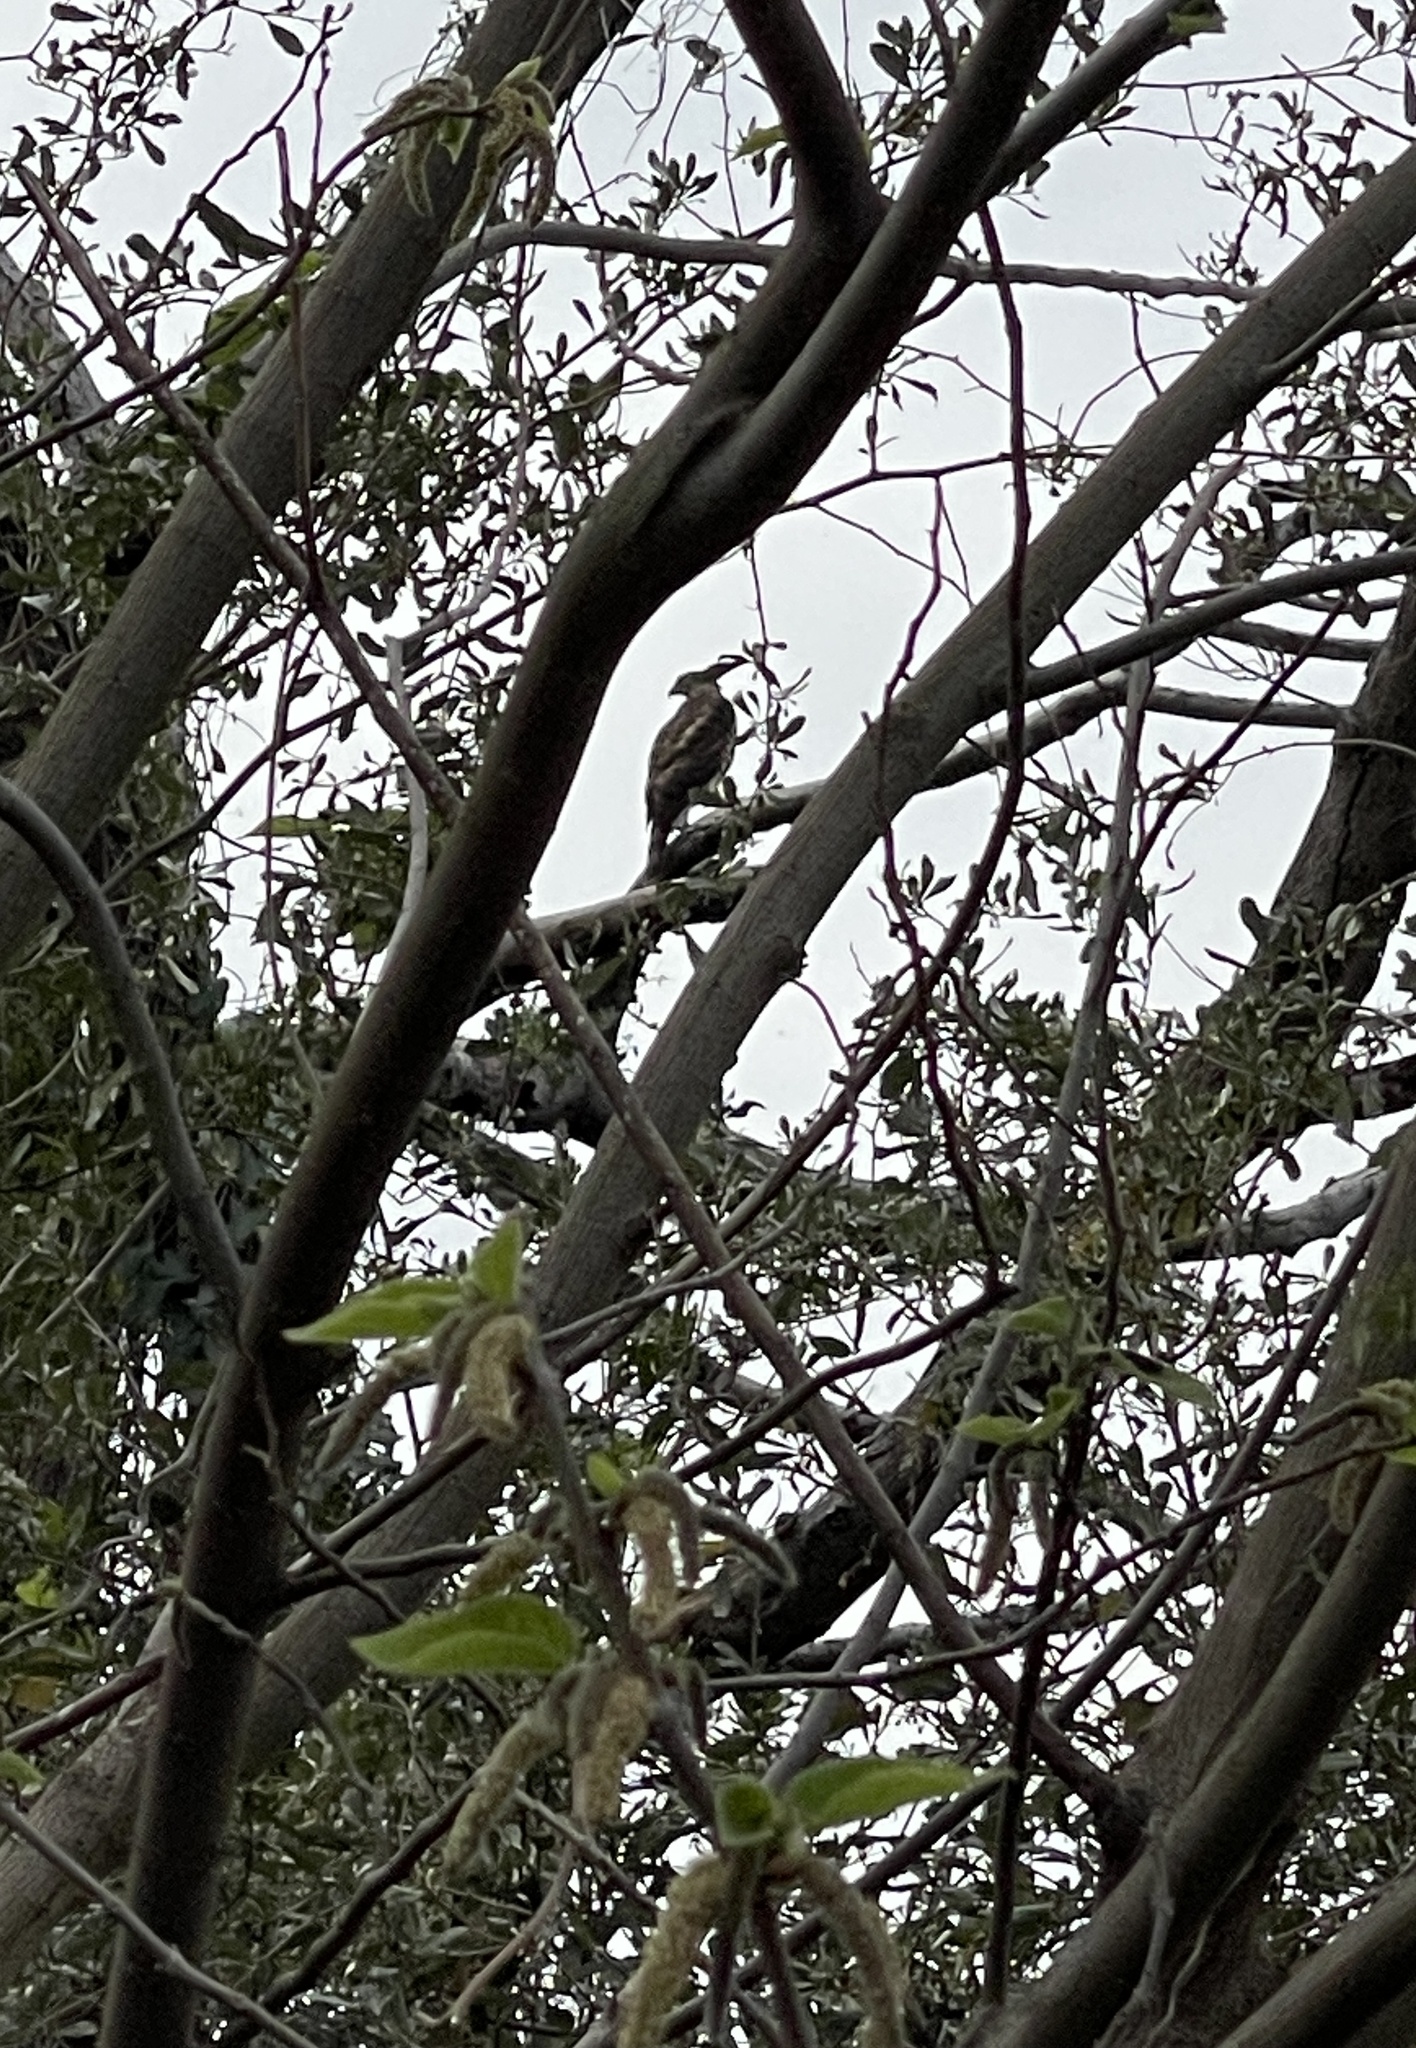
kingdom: Animalia
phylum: Chordata
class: Aves
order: Accipitriformes
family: Accipitridae
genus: Accipiter
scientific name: Accipiter trivirgatus
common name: Crested goshawk
